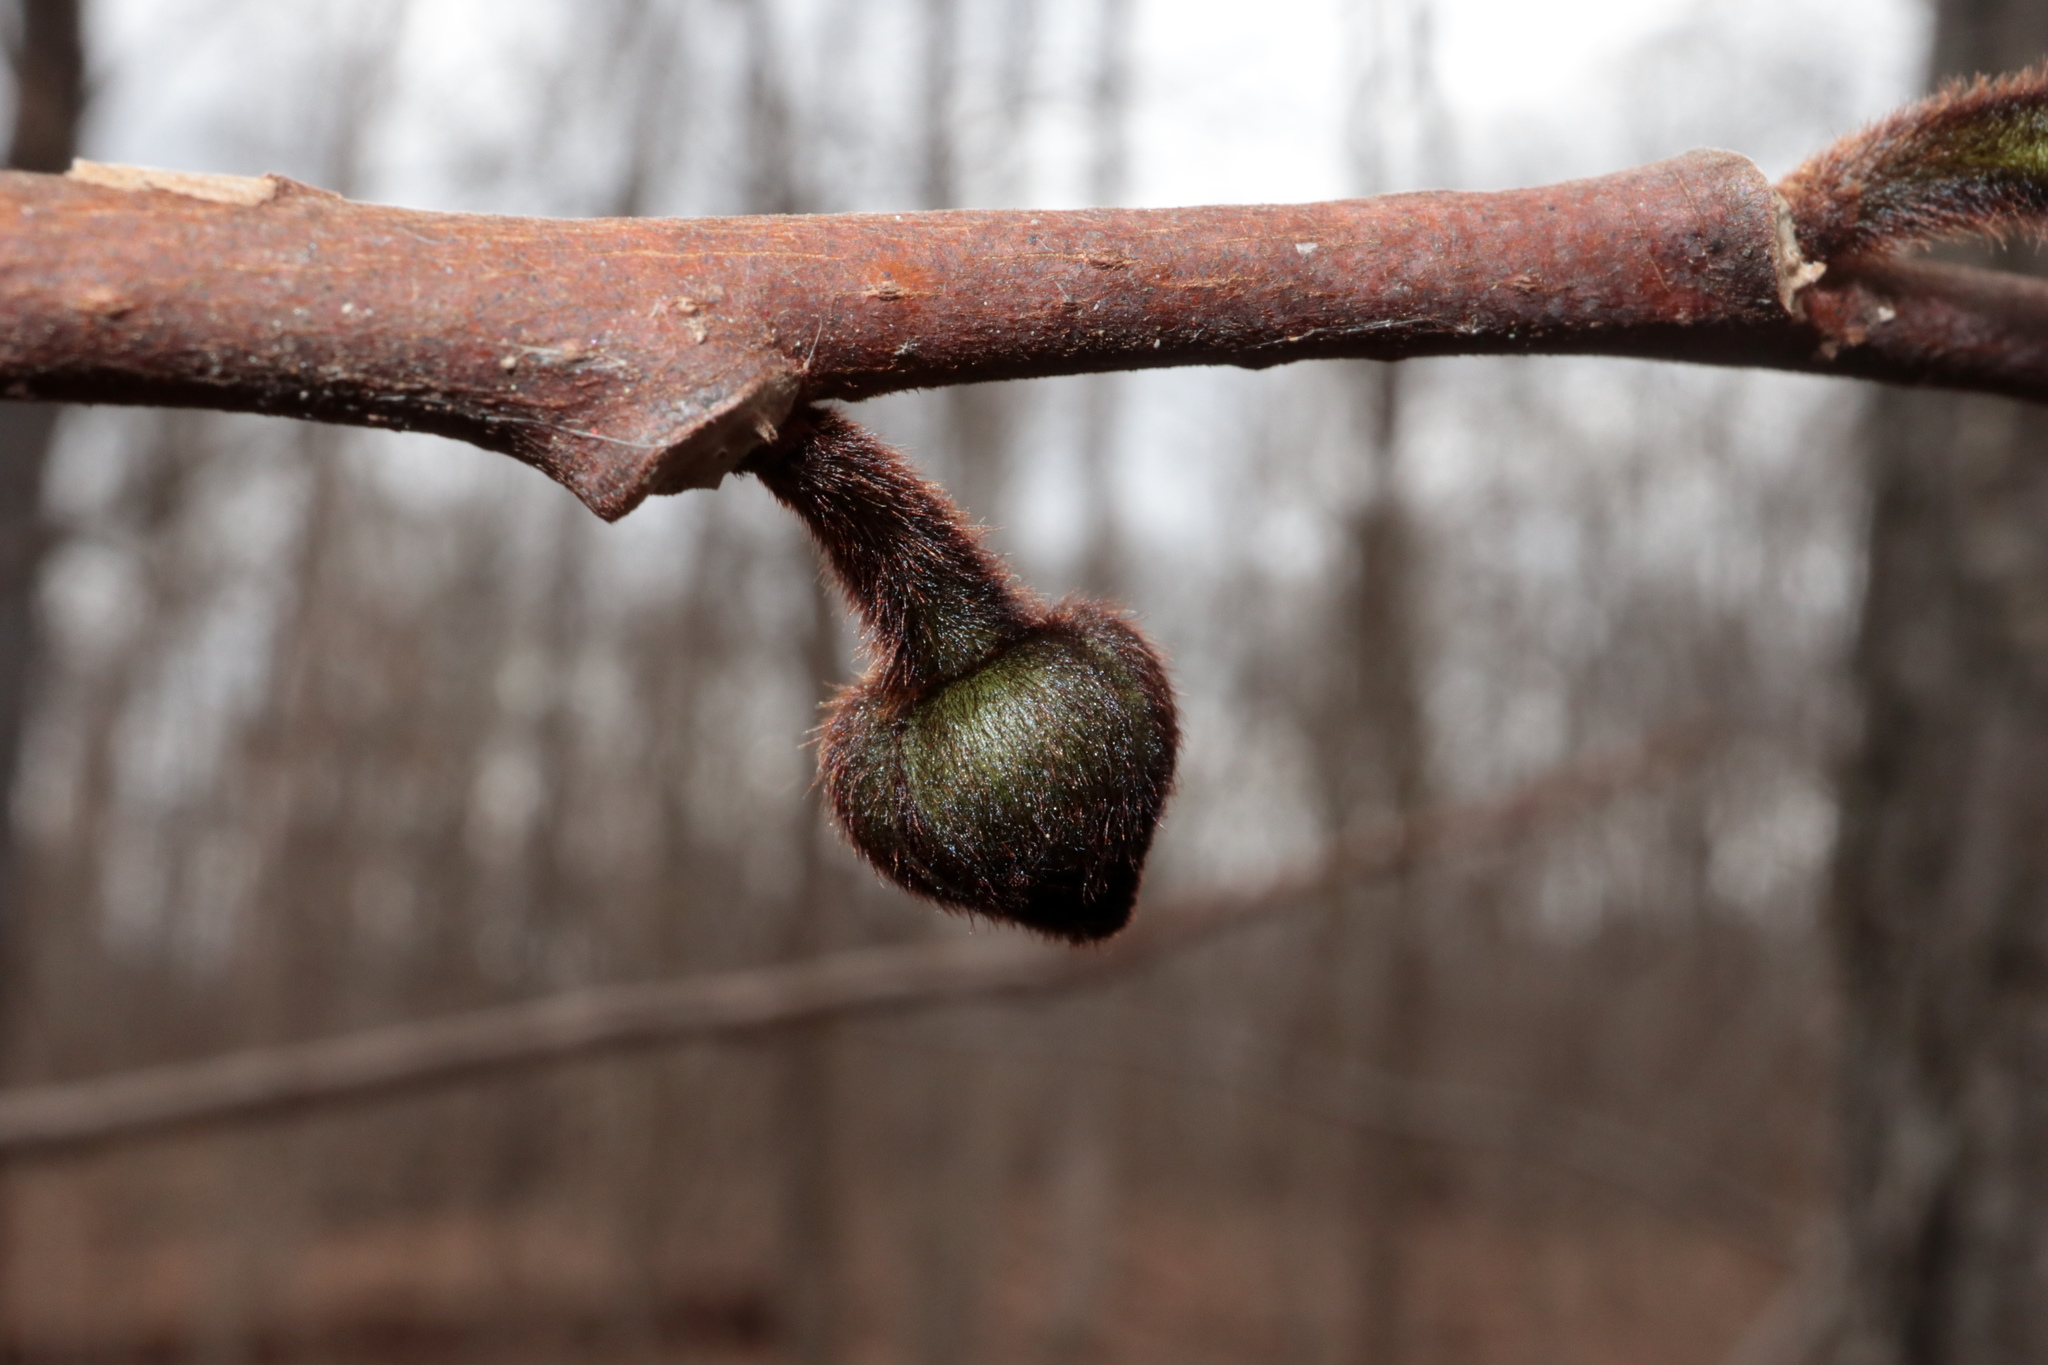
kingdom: Plantae
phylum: Tracheophyta
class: Magnoliopsida
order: Magnoliales
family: Annonaceae
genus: Asimina
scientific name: Asimina triloba
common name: Dog-banana
